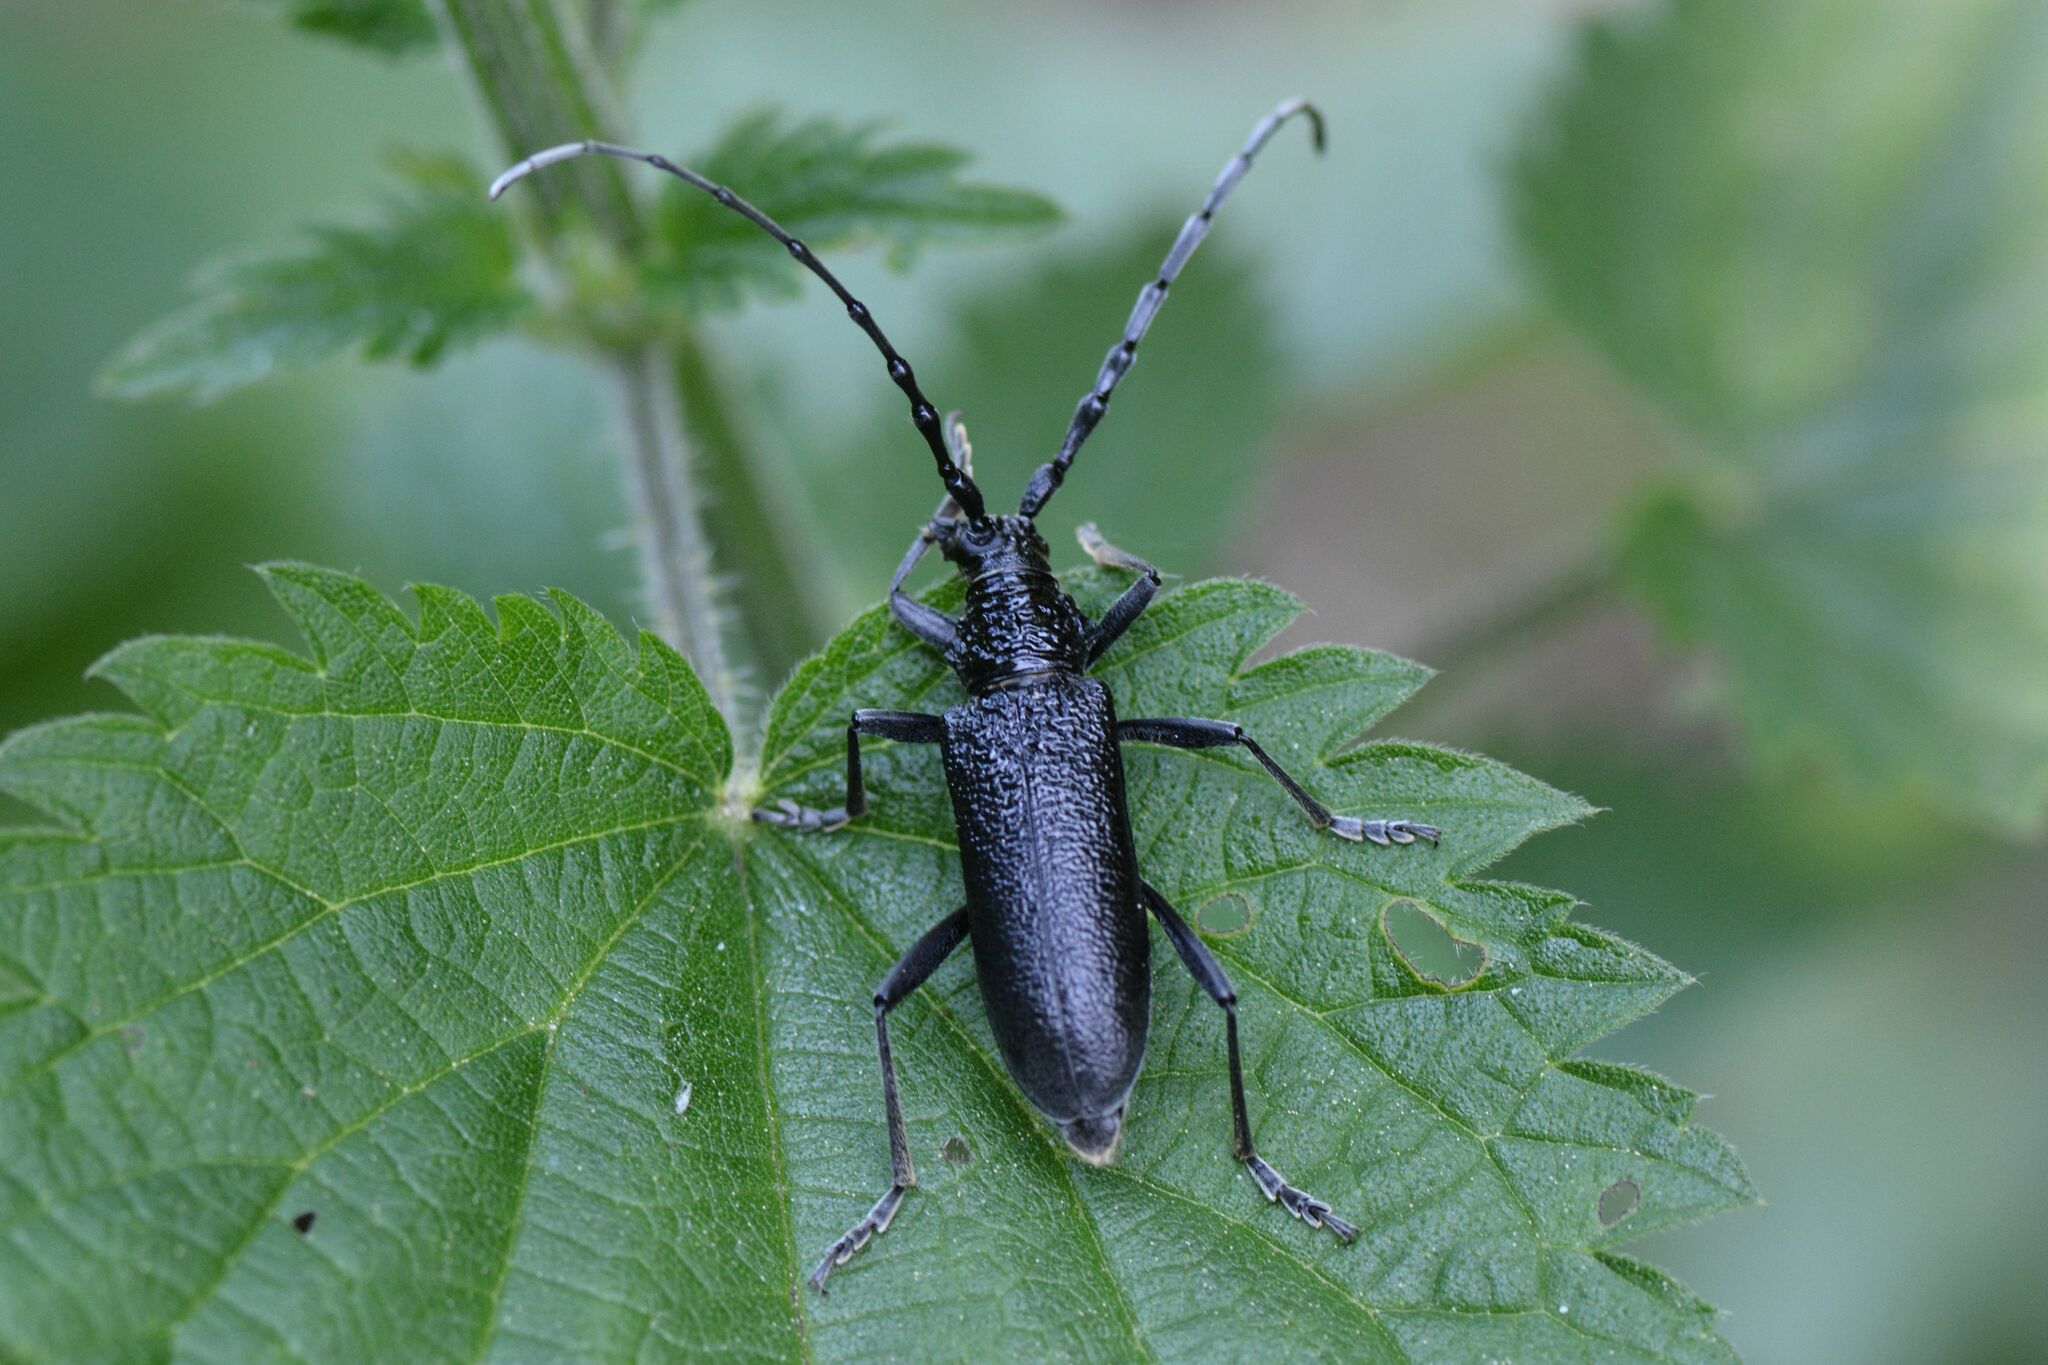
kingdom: Animalia
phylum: Arthropoda
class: Insecta
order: Coleoptera
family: Cerambycidae
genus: Cerambyx
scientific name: Cerambyx scopolii
